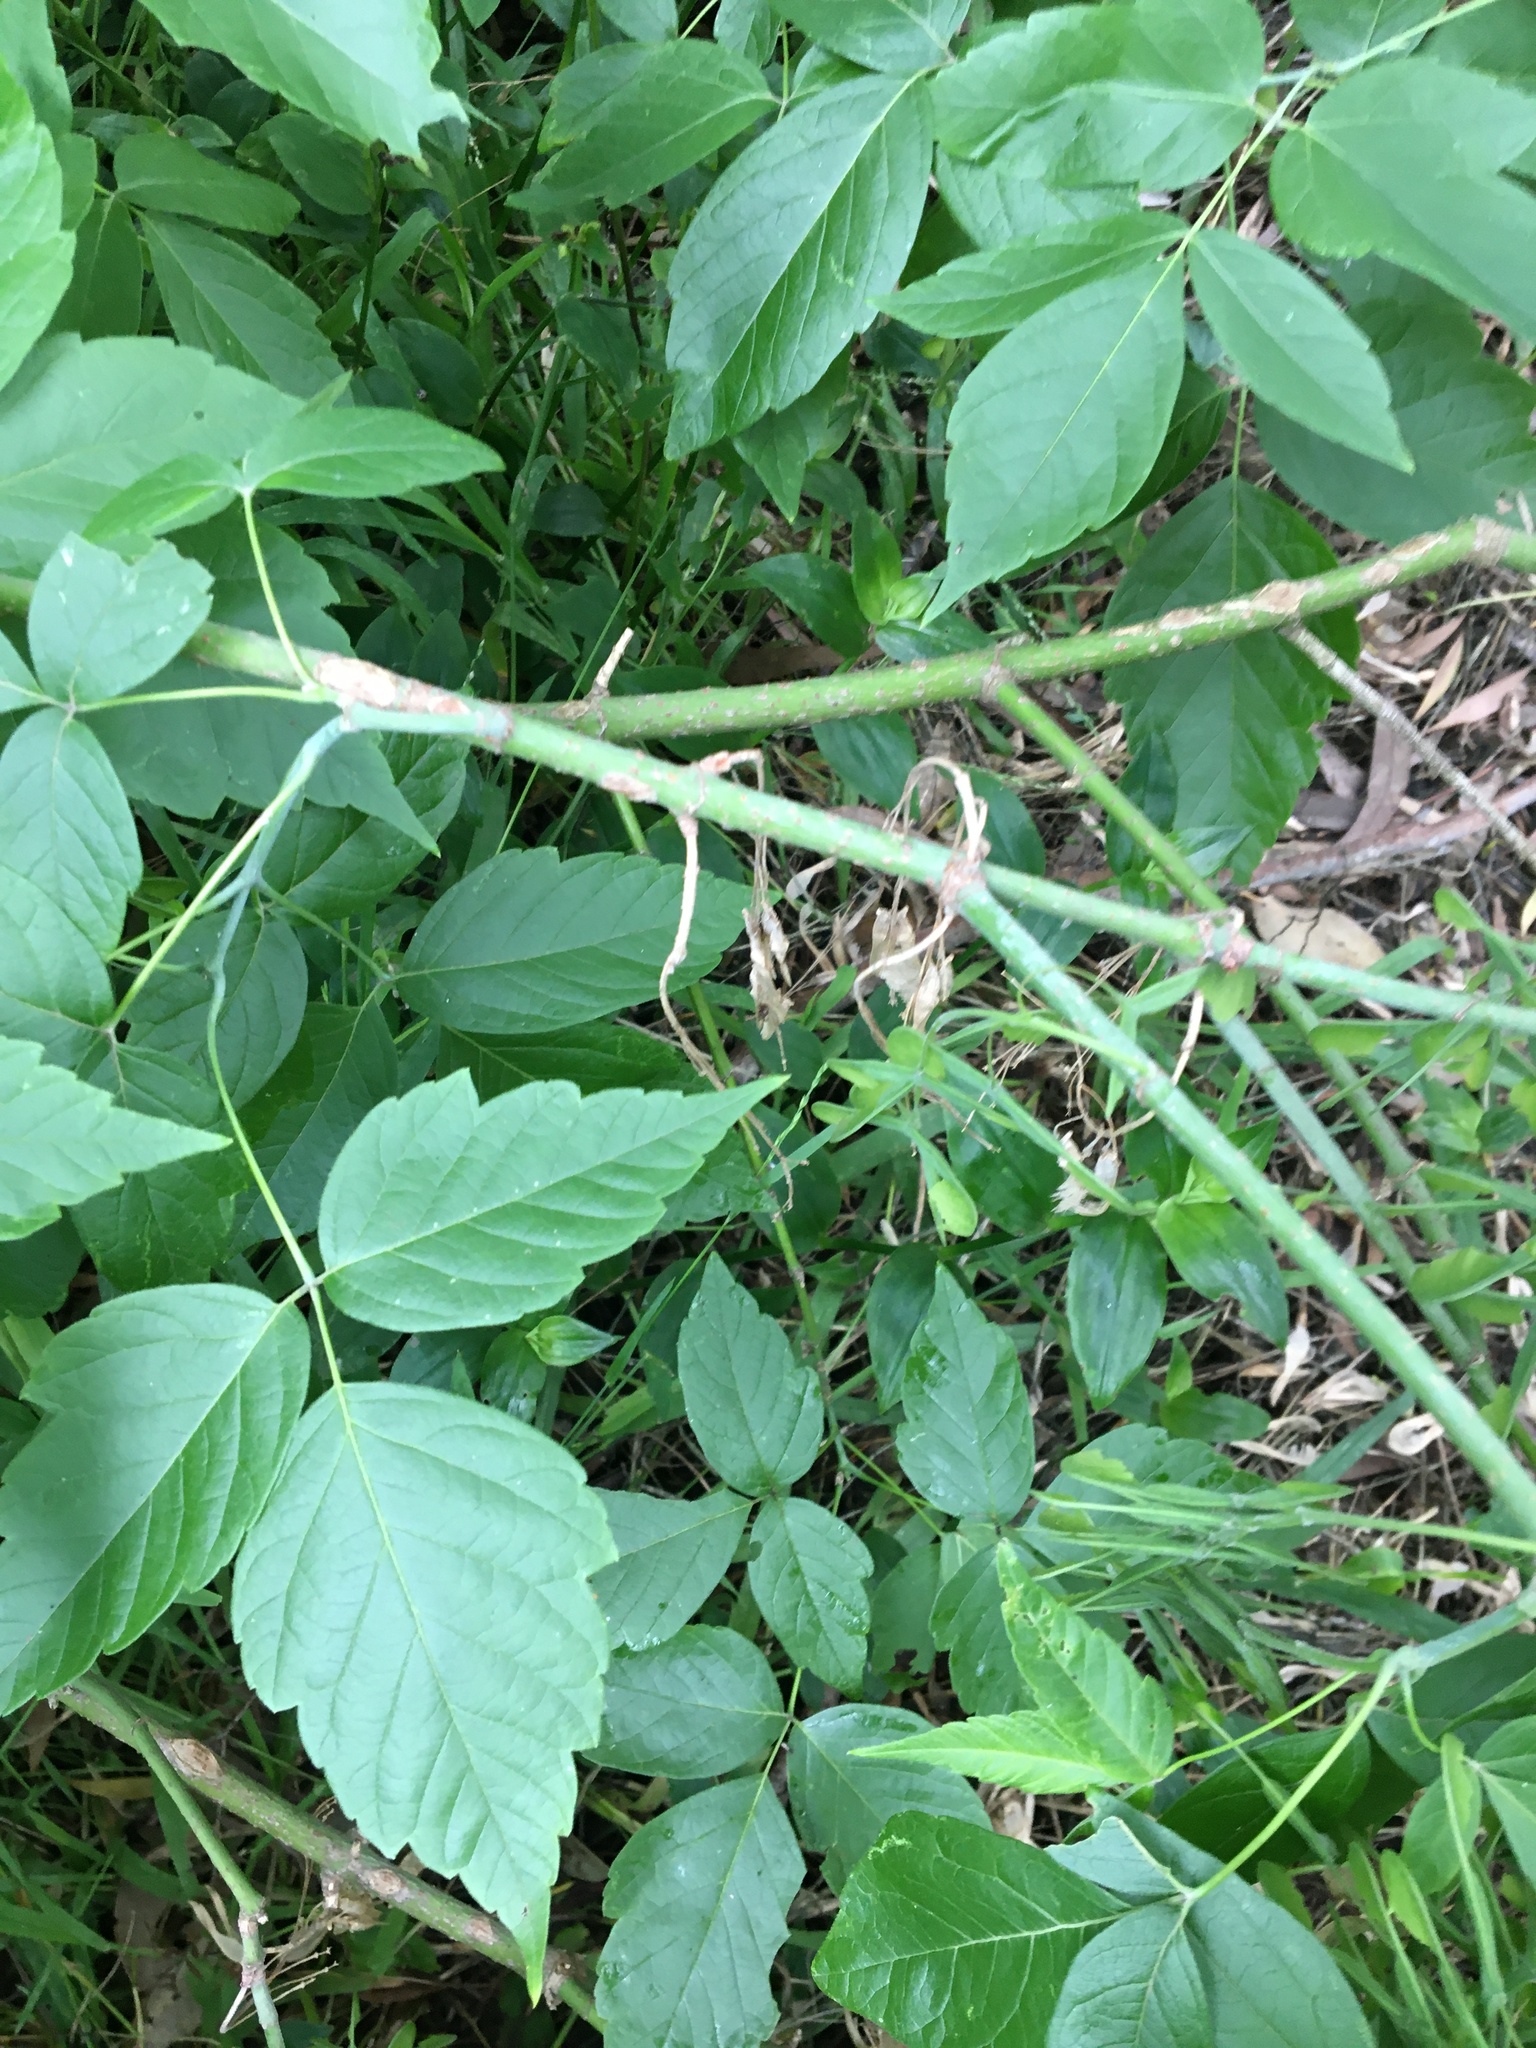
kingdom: Plantae
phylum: Tracheophyta
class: Magnoliopsida
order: Sapindales
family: Sapindaceae
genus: Acer
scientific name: Acer negundo
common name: Ashleaf maple
